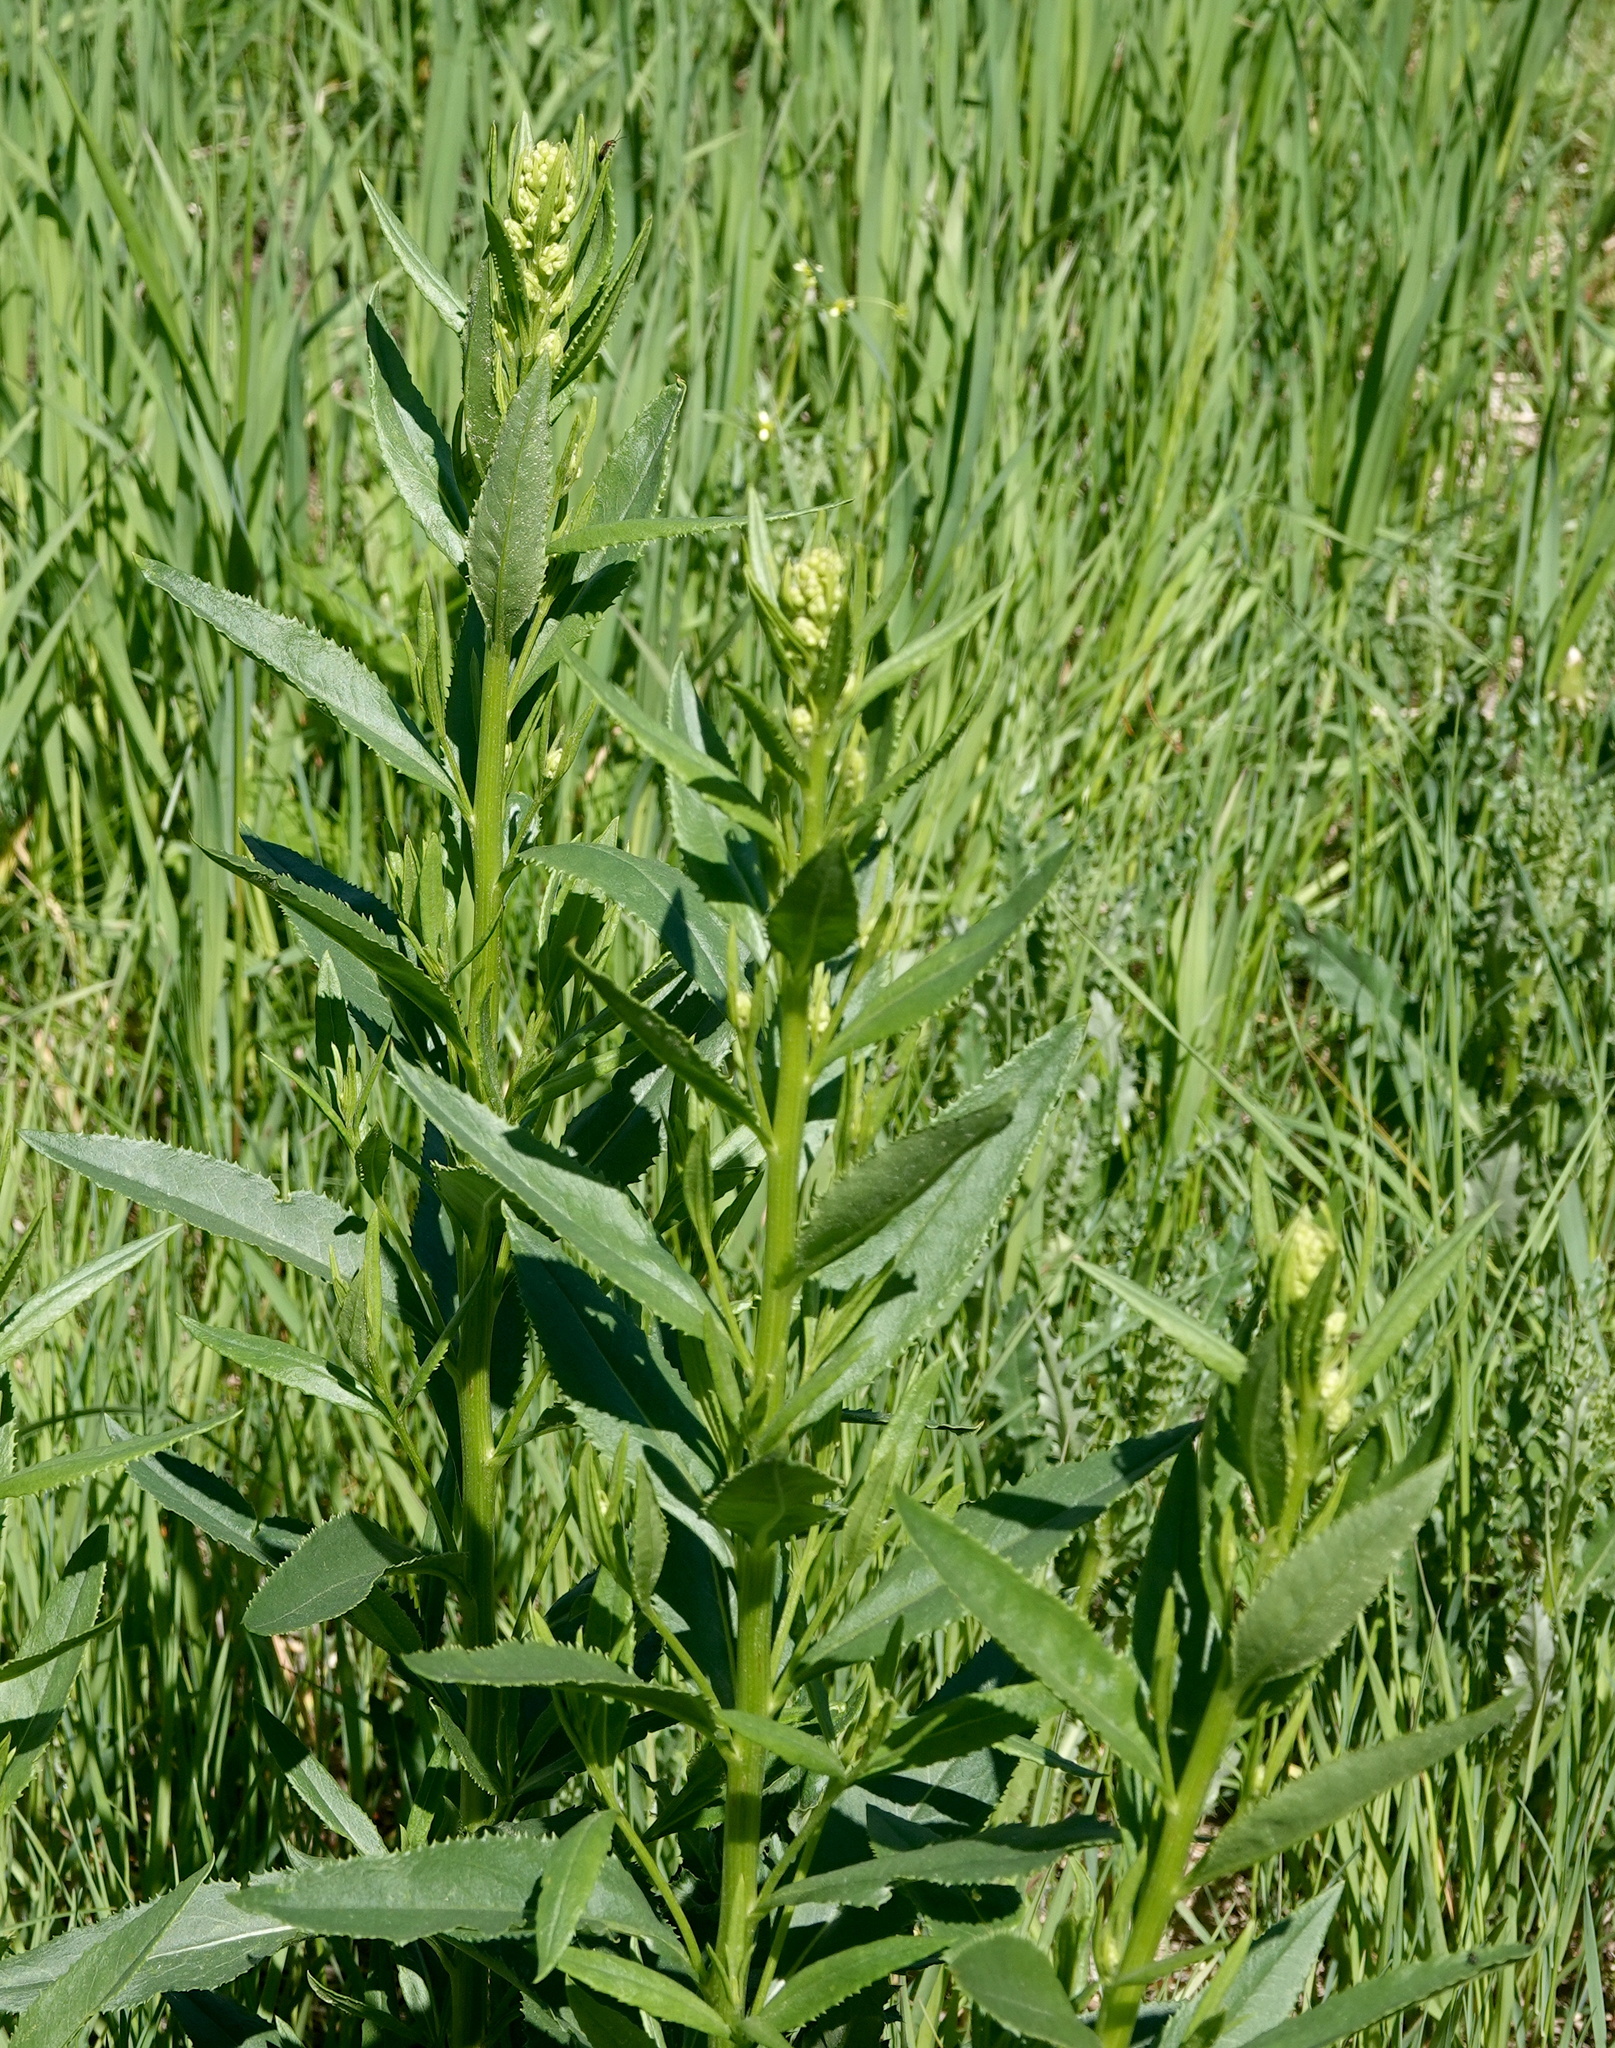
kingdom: Plantae
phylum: Tracheophyta
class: Magnoliopsida
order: Asterales
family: Asteraceae
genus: Senecio
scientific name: Senecio serra
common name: Tall ragwort
